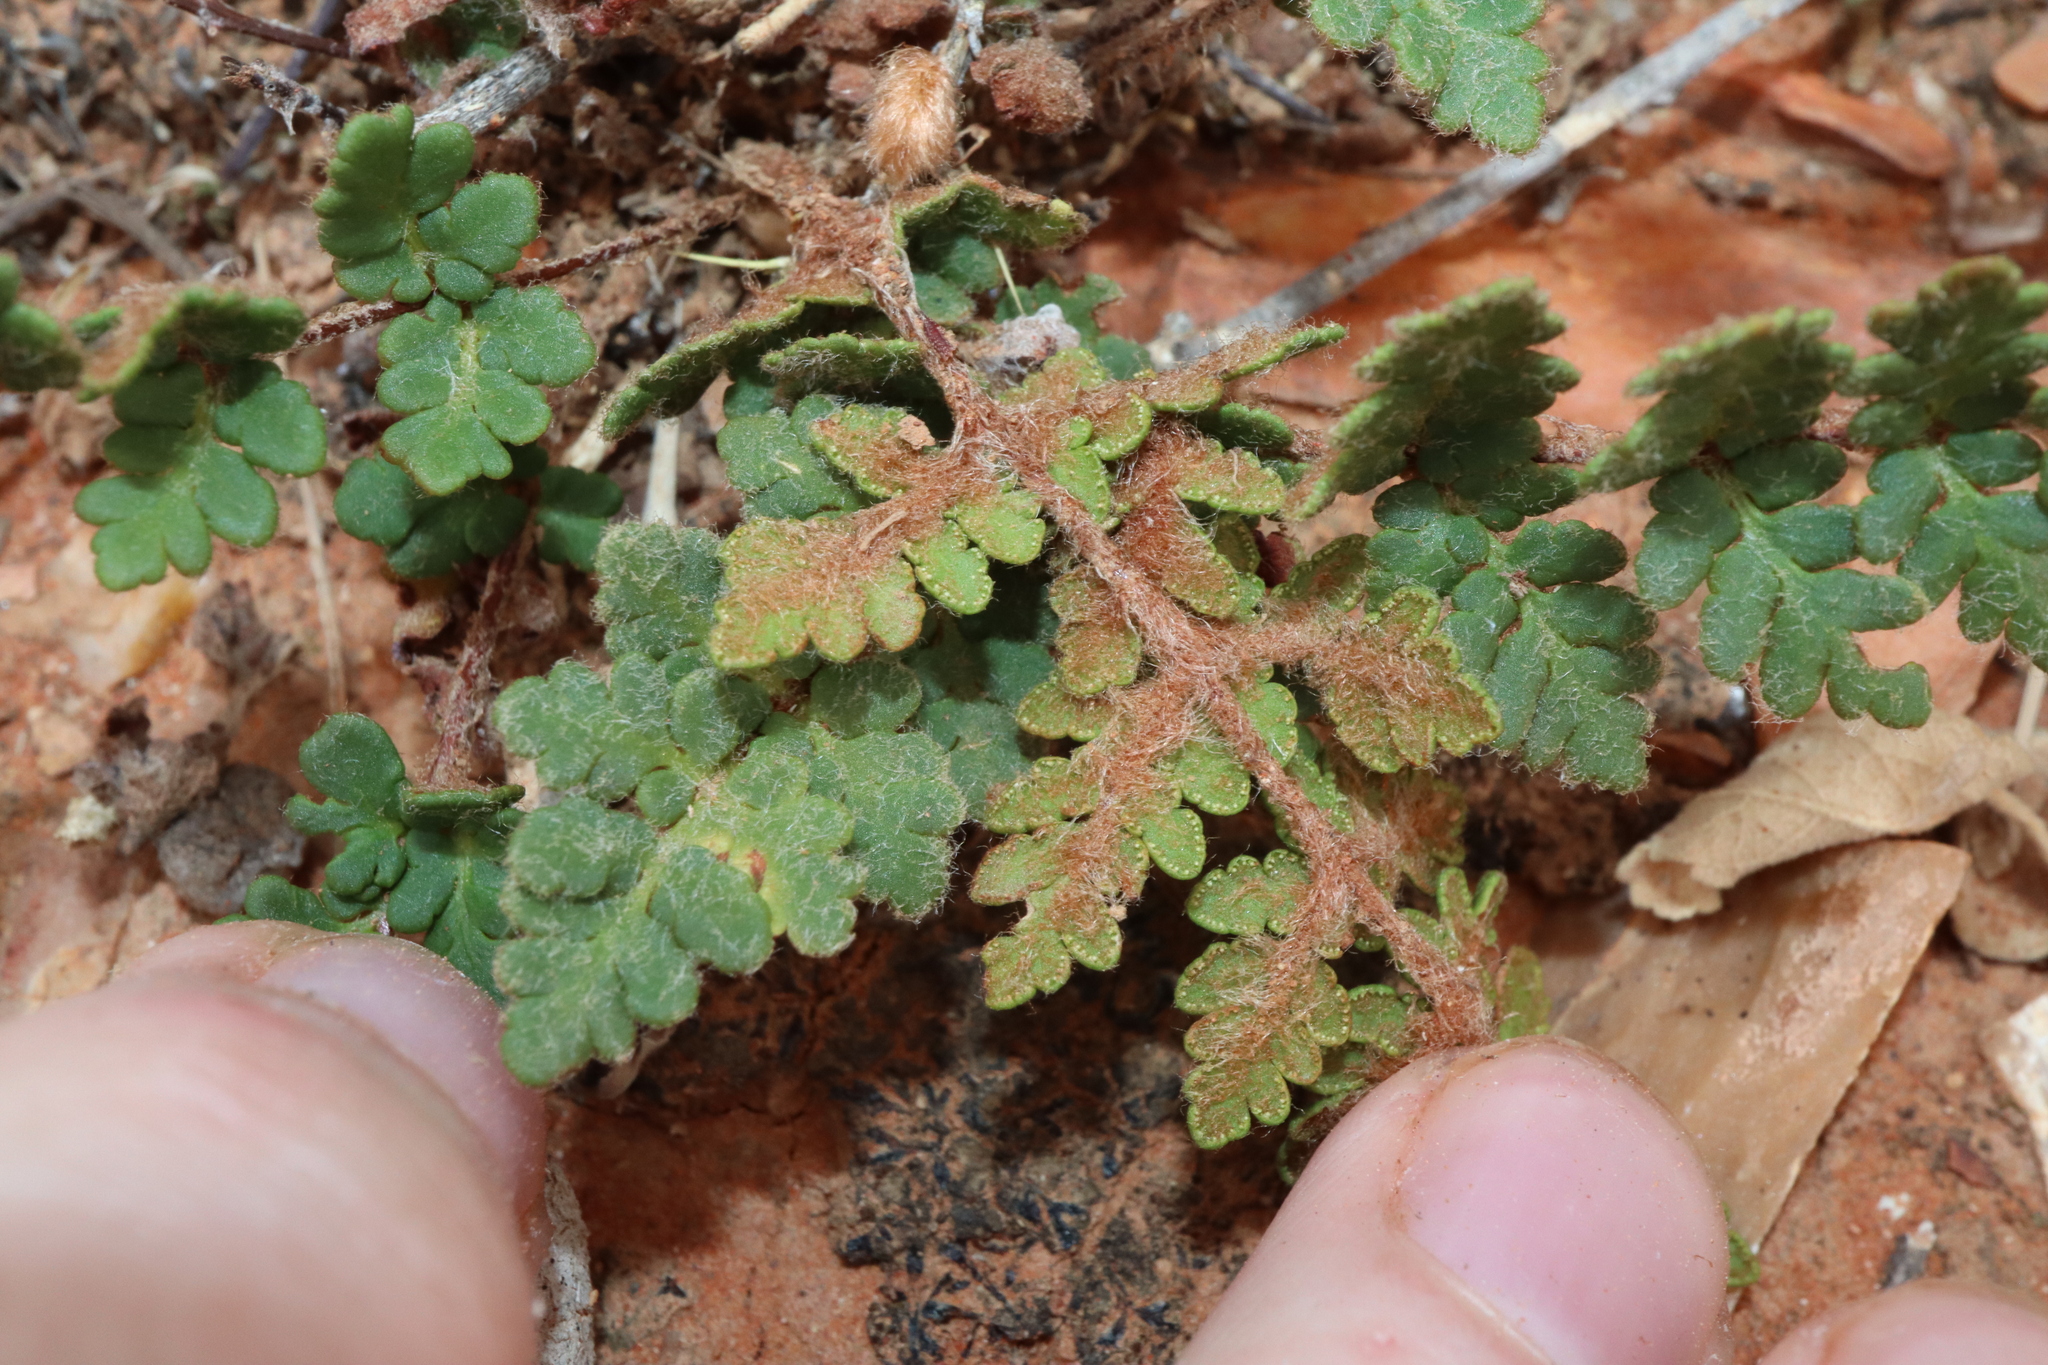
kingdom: Plantae
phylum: Tracheophyta
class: Polypodiopsida
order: Polypodiales
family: Pteridaceae
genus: Cheilanthes
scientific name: Cheilanthes lasiophylla
